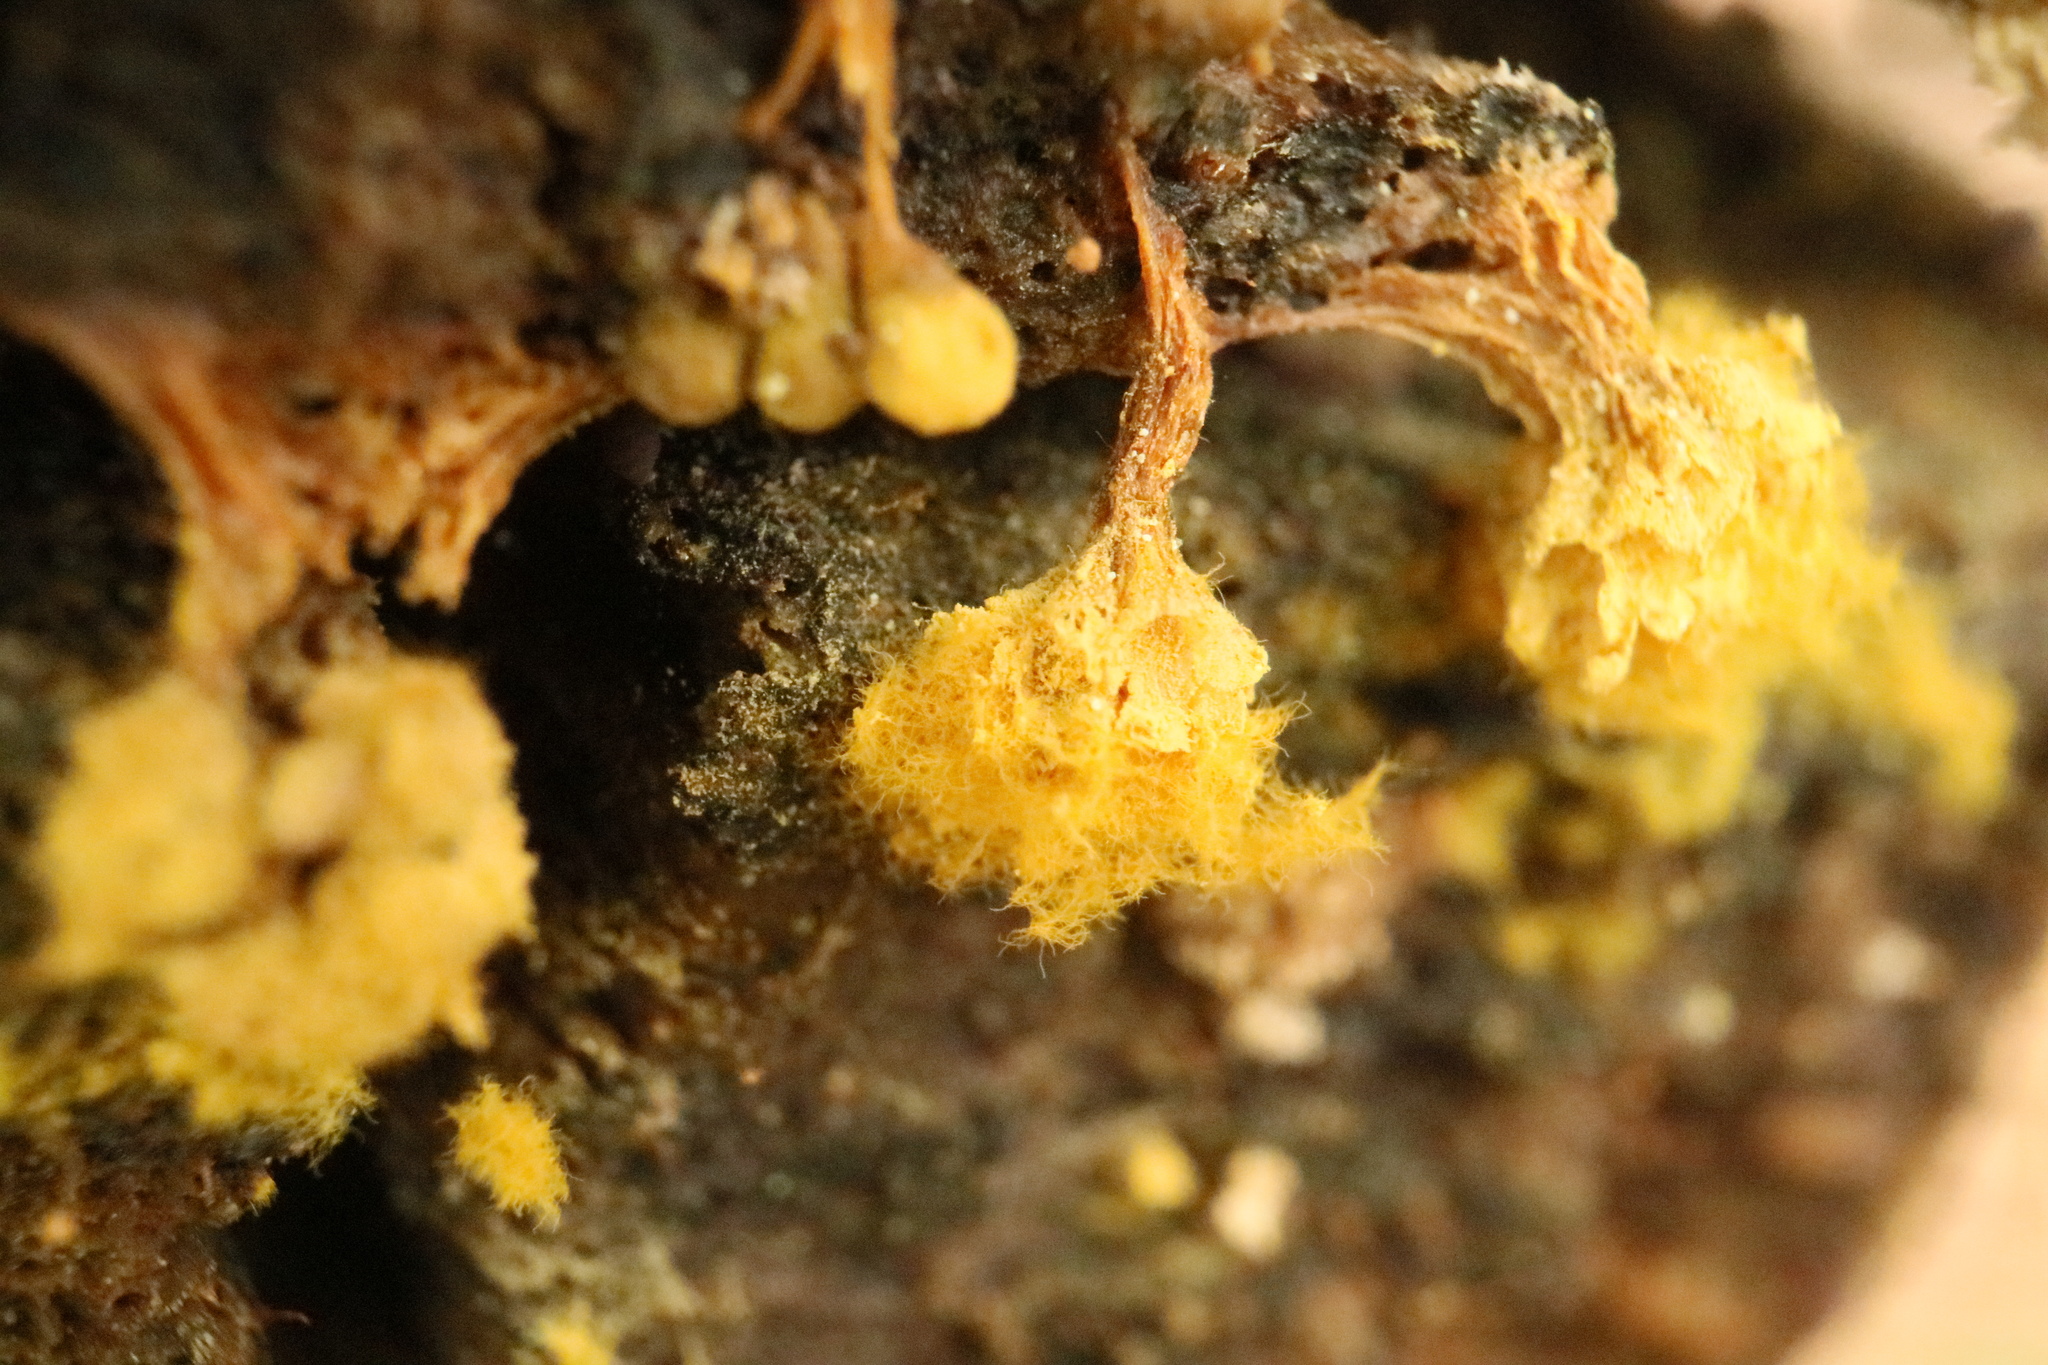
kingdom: Protozoa
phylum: Mycetozoa
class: Myxomycetes
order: Trichiales
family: Trichiaceae
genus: Oligonema
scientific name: Oligonema verrucosum
